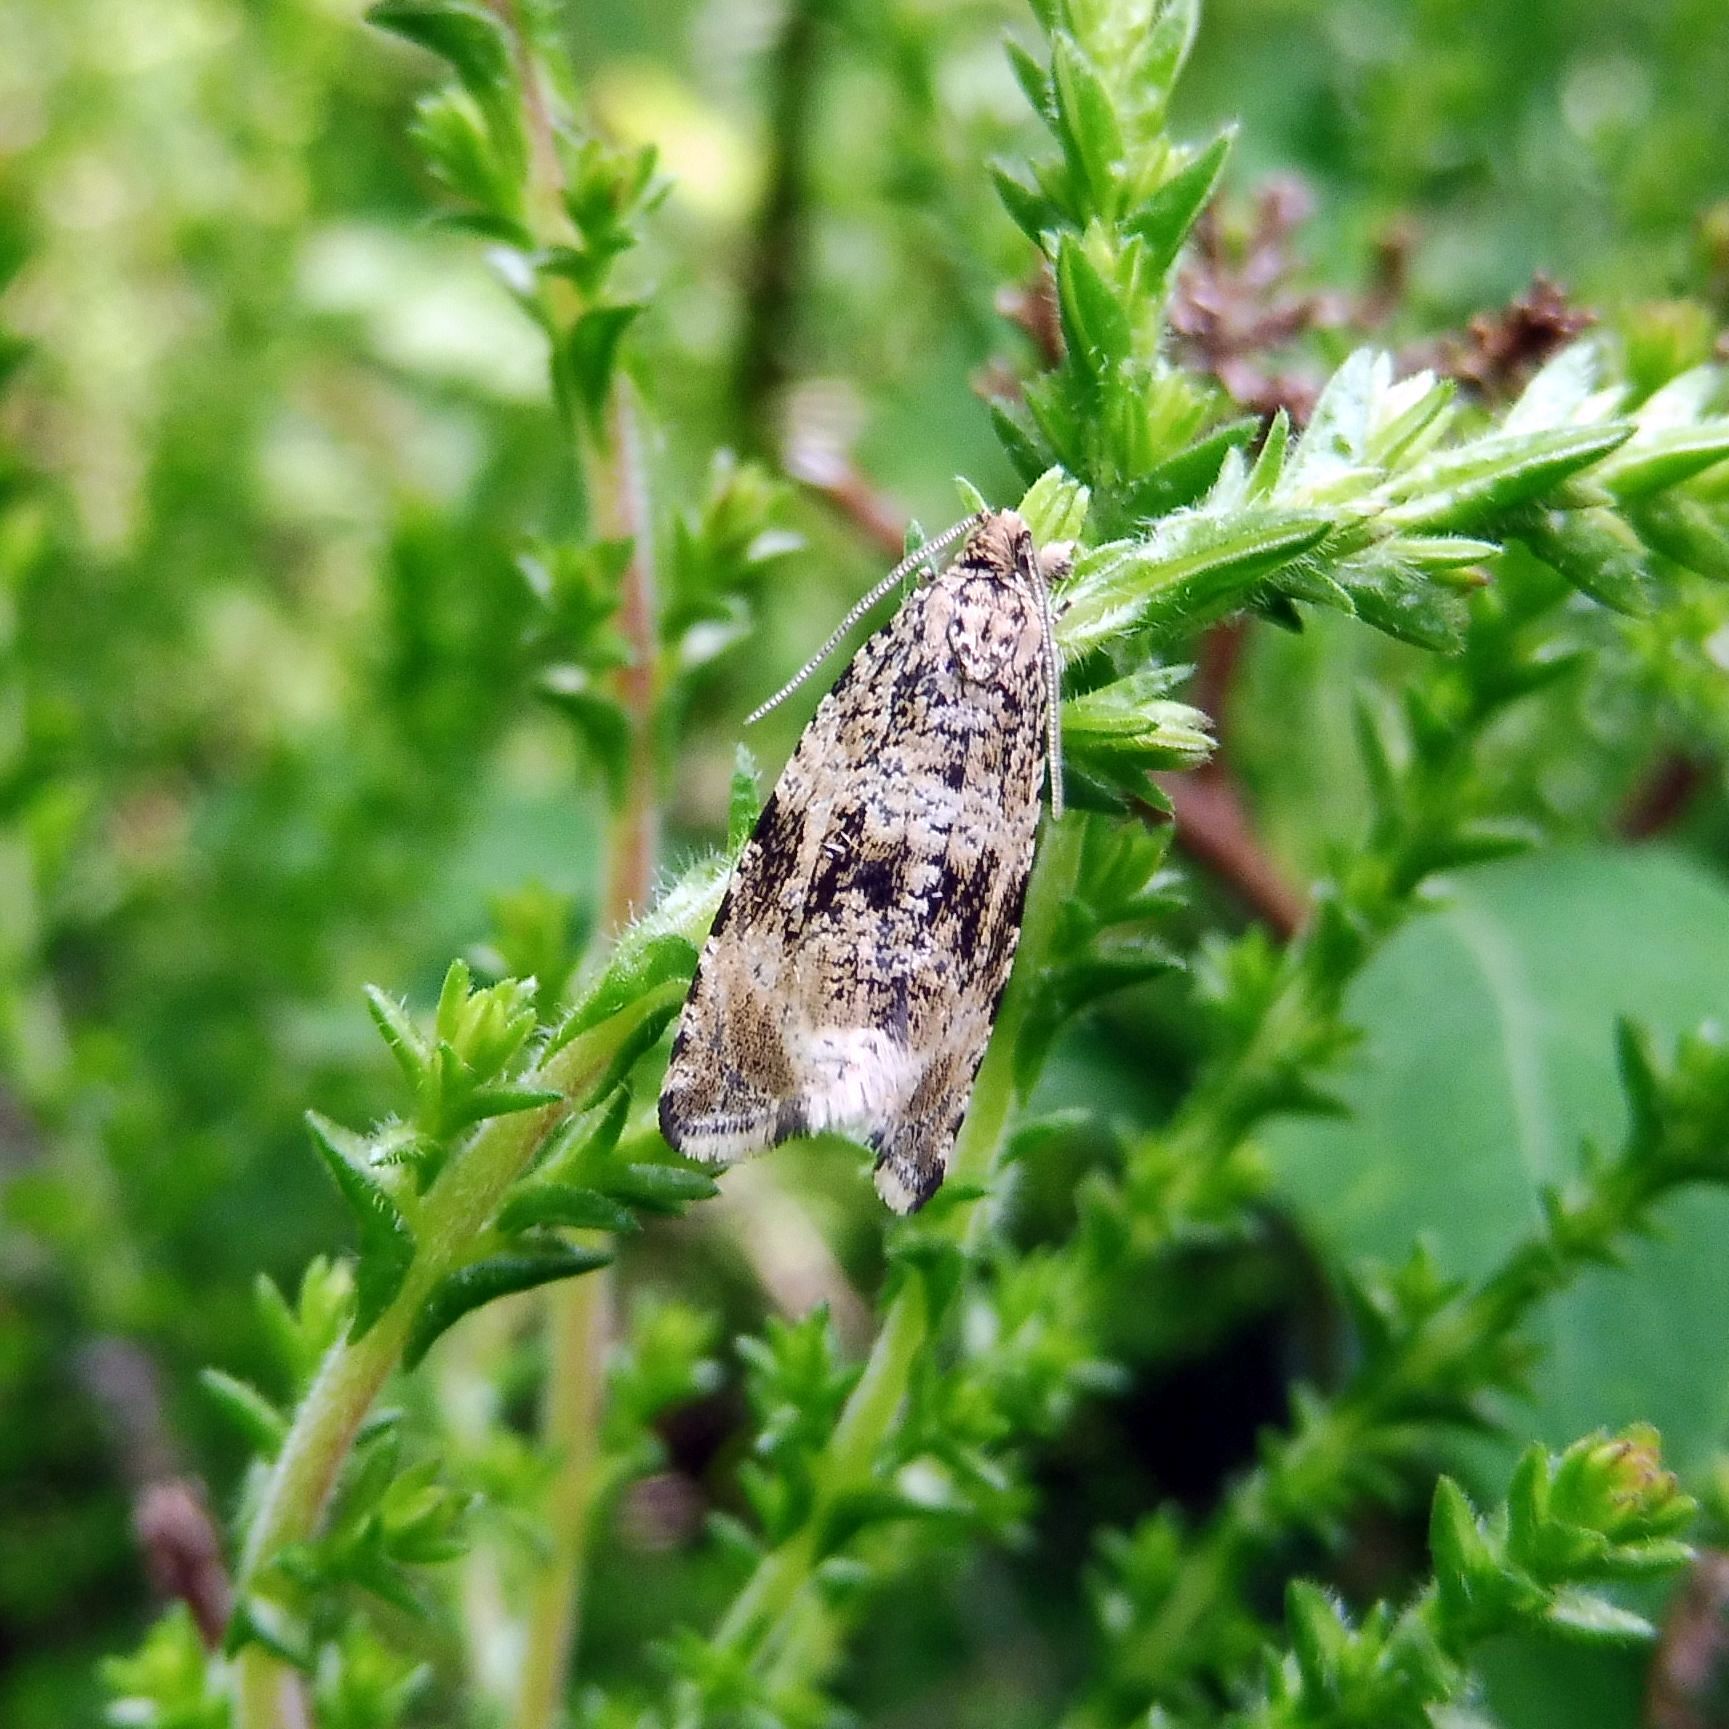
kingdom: Animalia
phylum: Arthropoda
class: Insecta
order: Lepidoptera
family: Tortricidae
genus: Syricoris
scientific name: Syricoris lacunana
